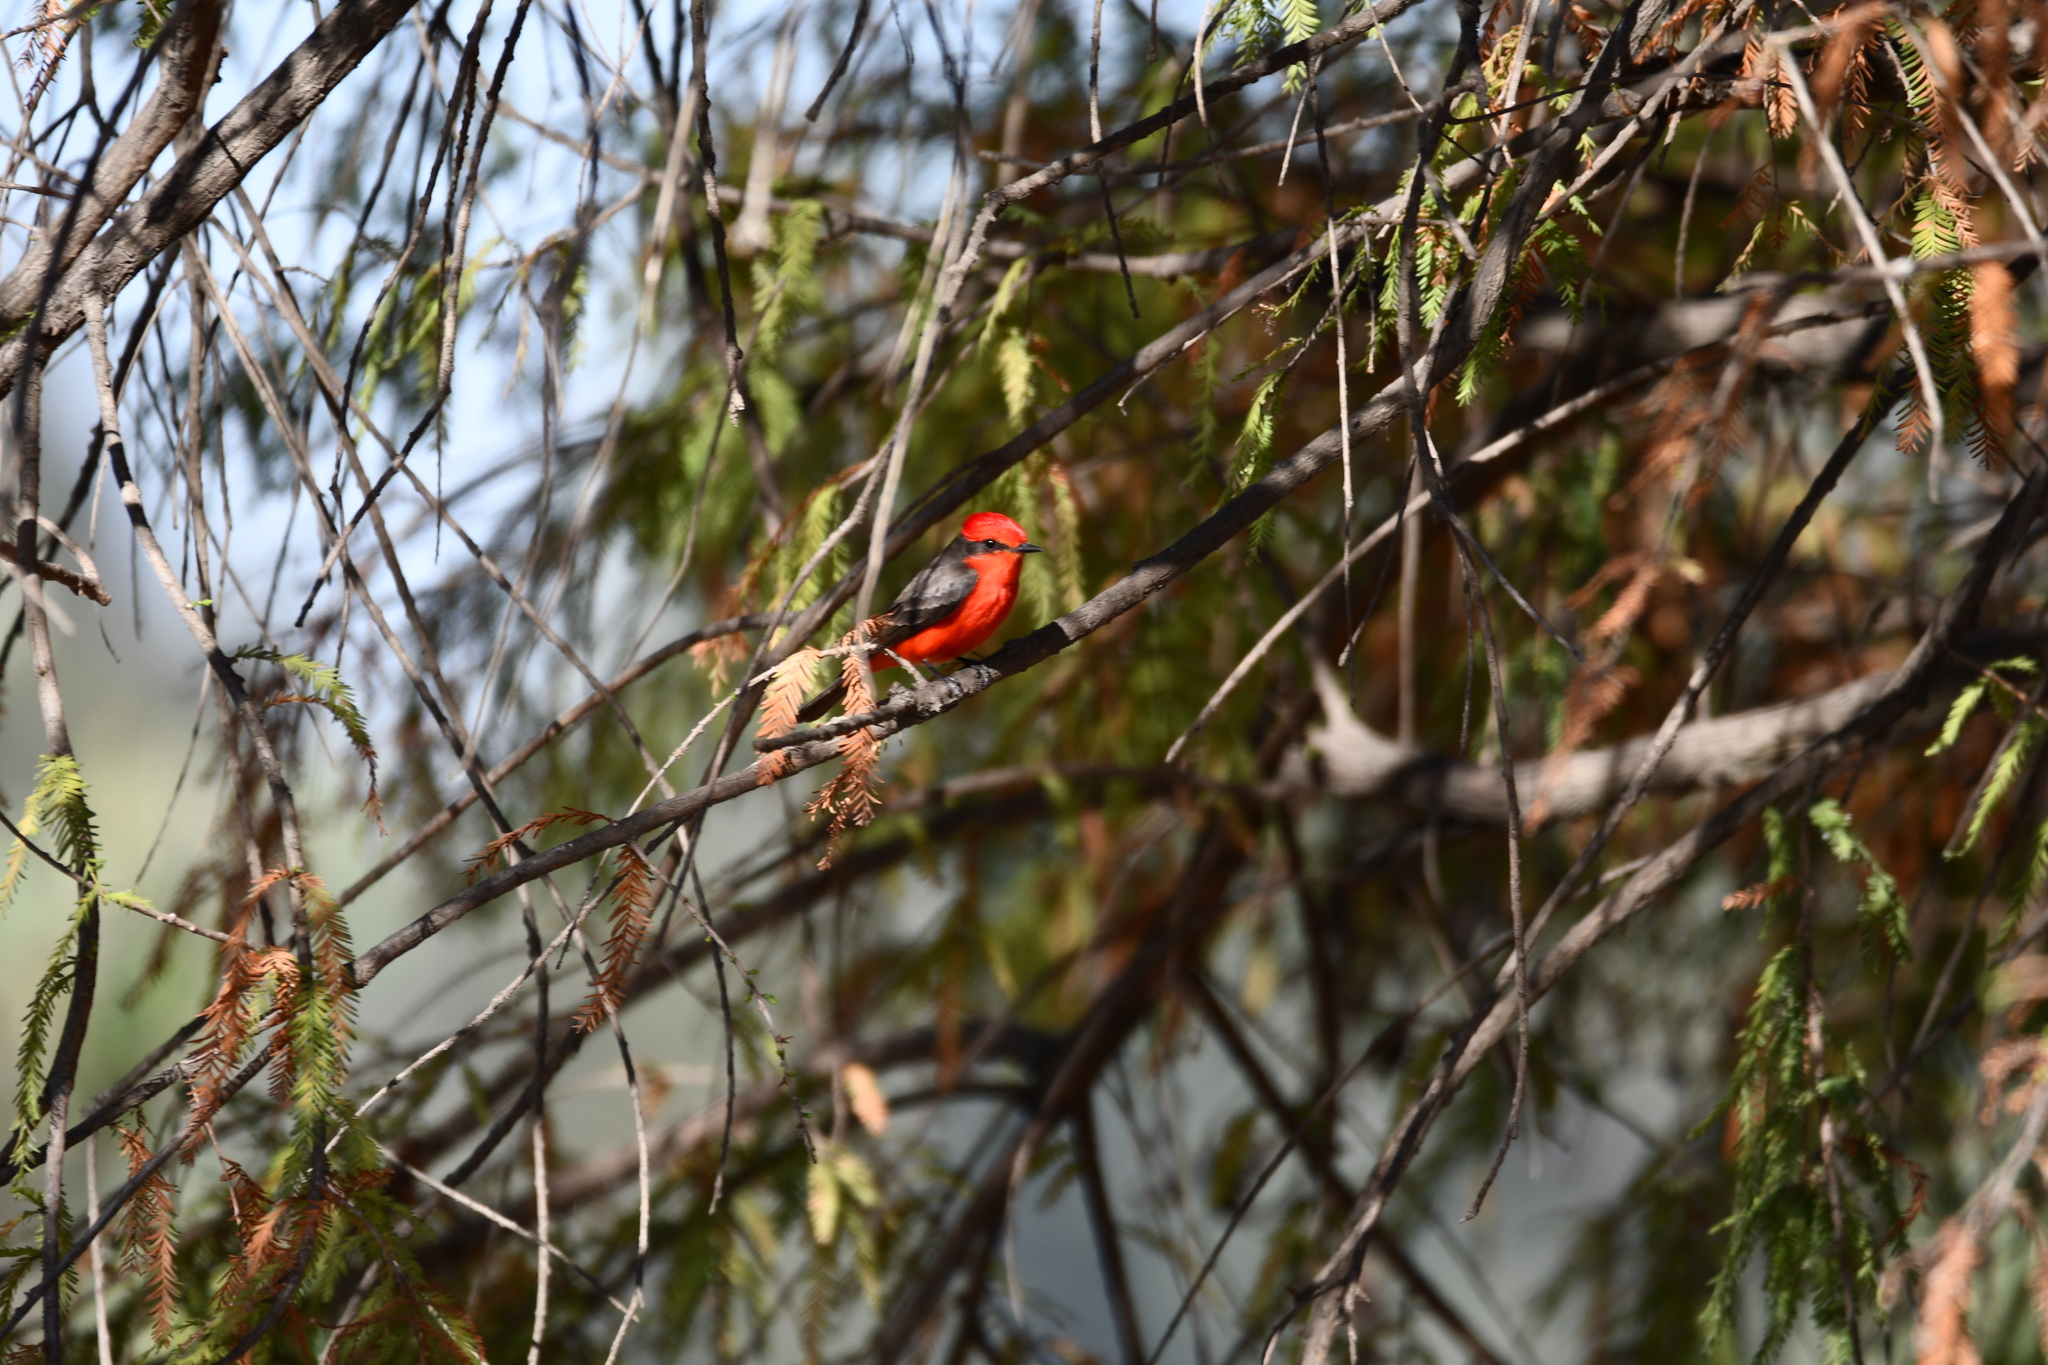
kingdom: Animalia
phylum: Chordata
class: Aves
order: Passeriformes
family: Tyrannidae
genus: Pyrocephalus
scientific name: Pyrocephalus rubinus
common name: Vermilion flycatcher
